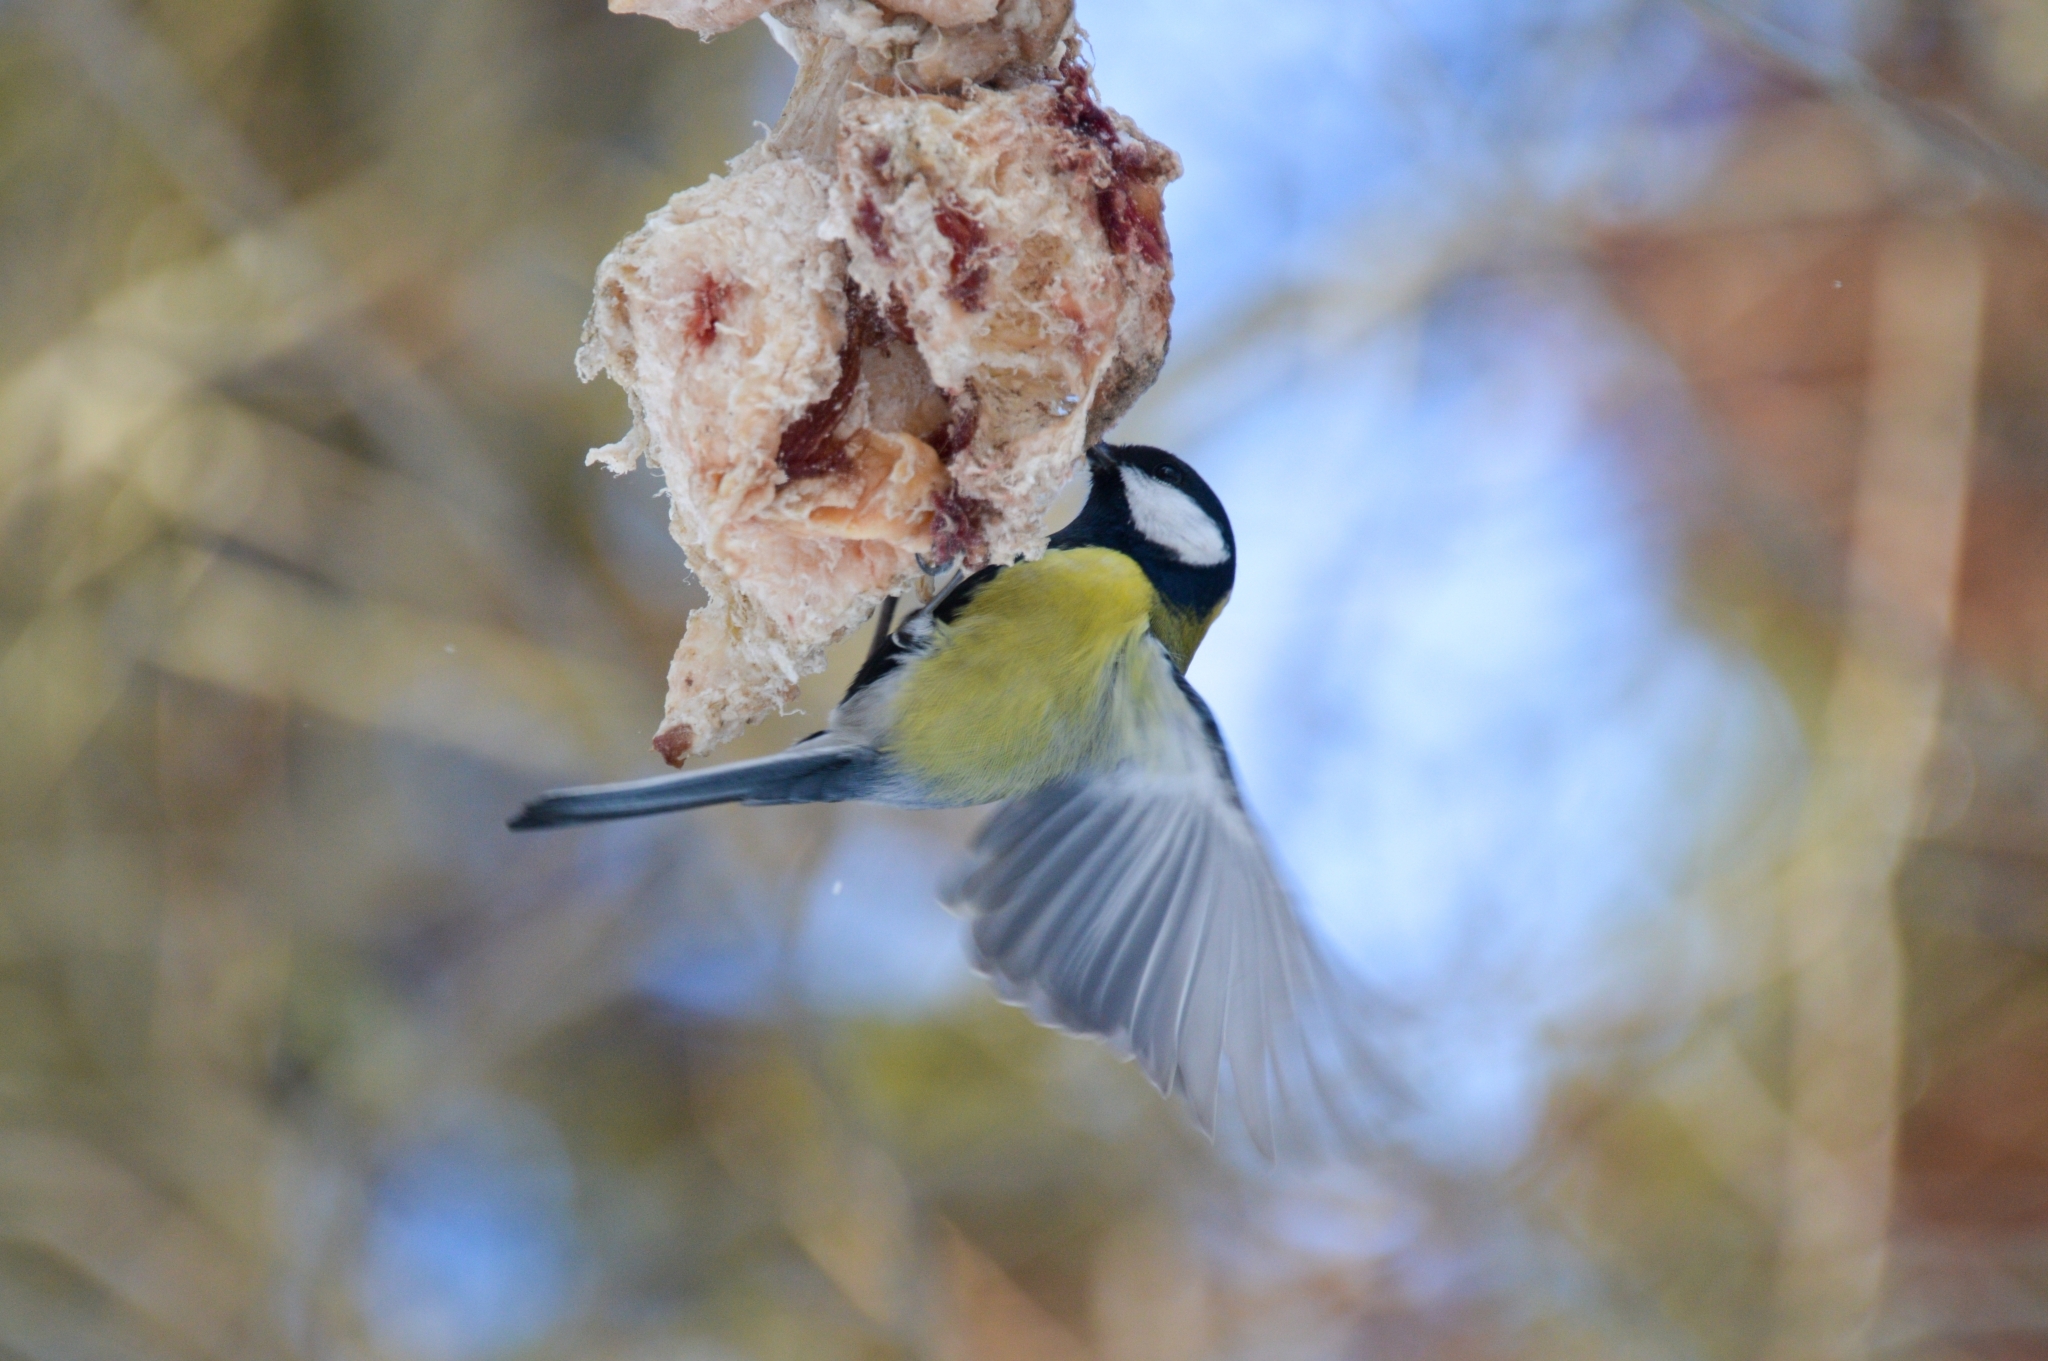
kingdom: Animalia
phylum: Chordata
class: Aves
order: Passeriformes
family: Paridae
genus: Parus
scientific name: Parus major
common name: Great tit
